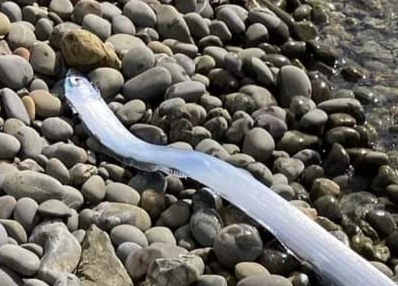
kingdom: Animalia
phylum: Chordata
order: Lampriformes
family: Regalecidae
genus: Agrostichthys
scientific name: Agrostichthys parkeri
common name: Streamer fish
